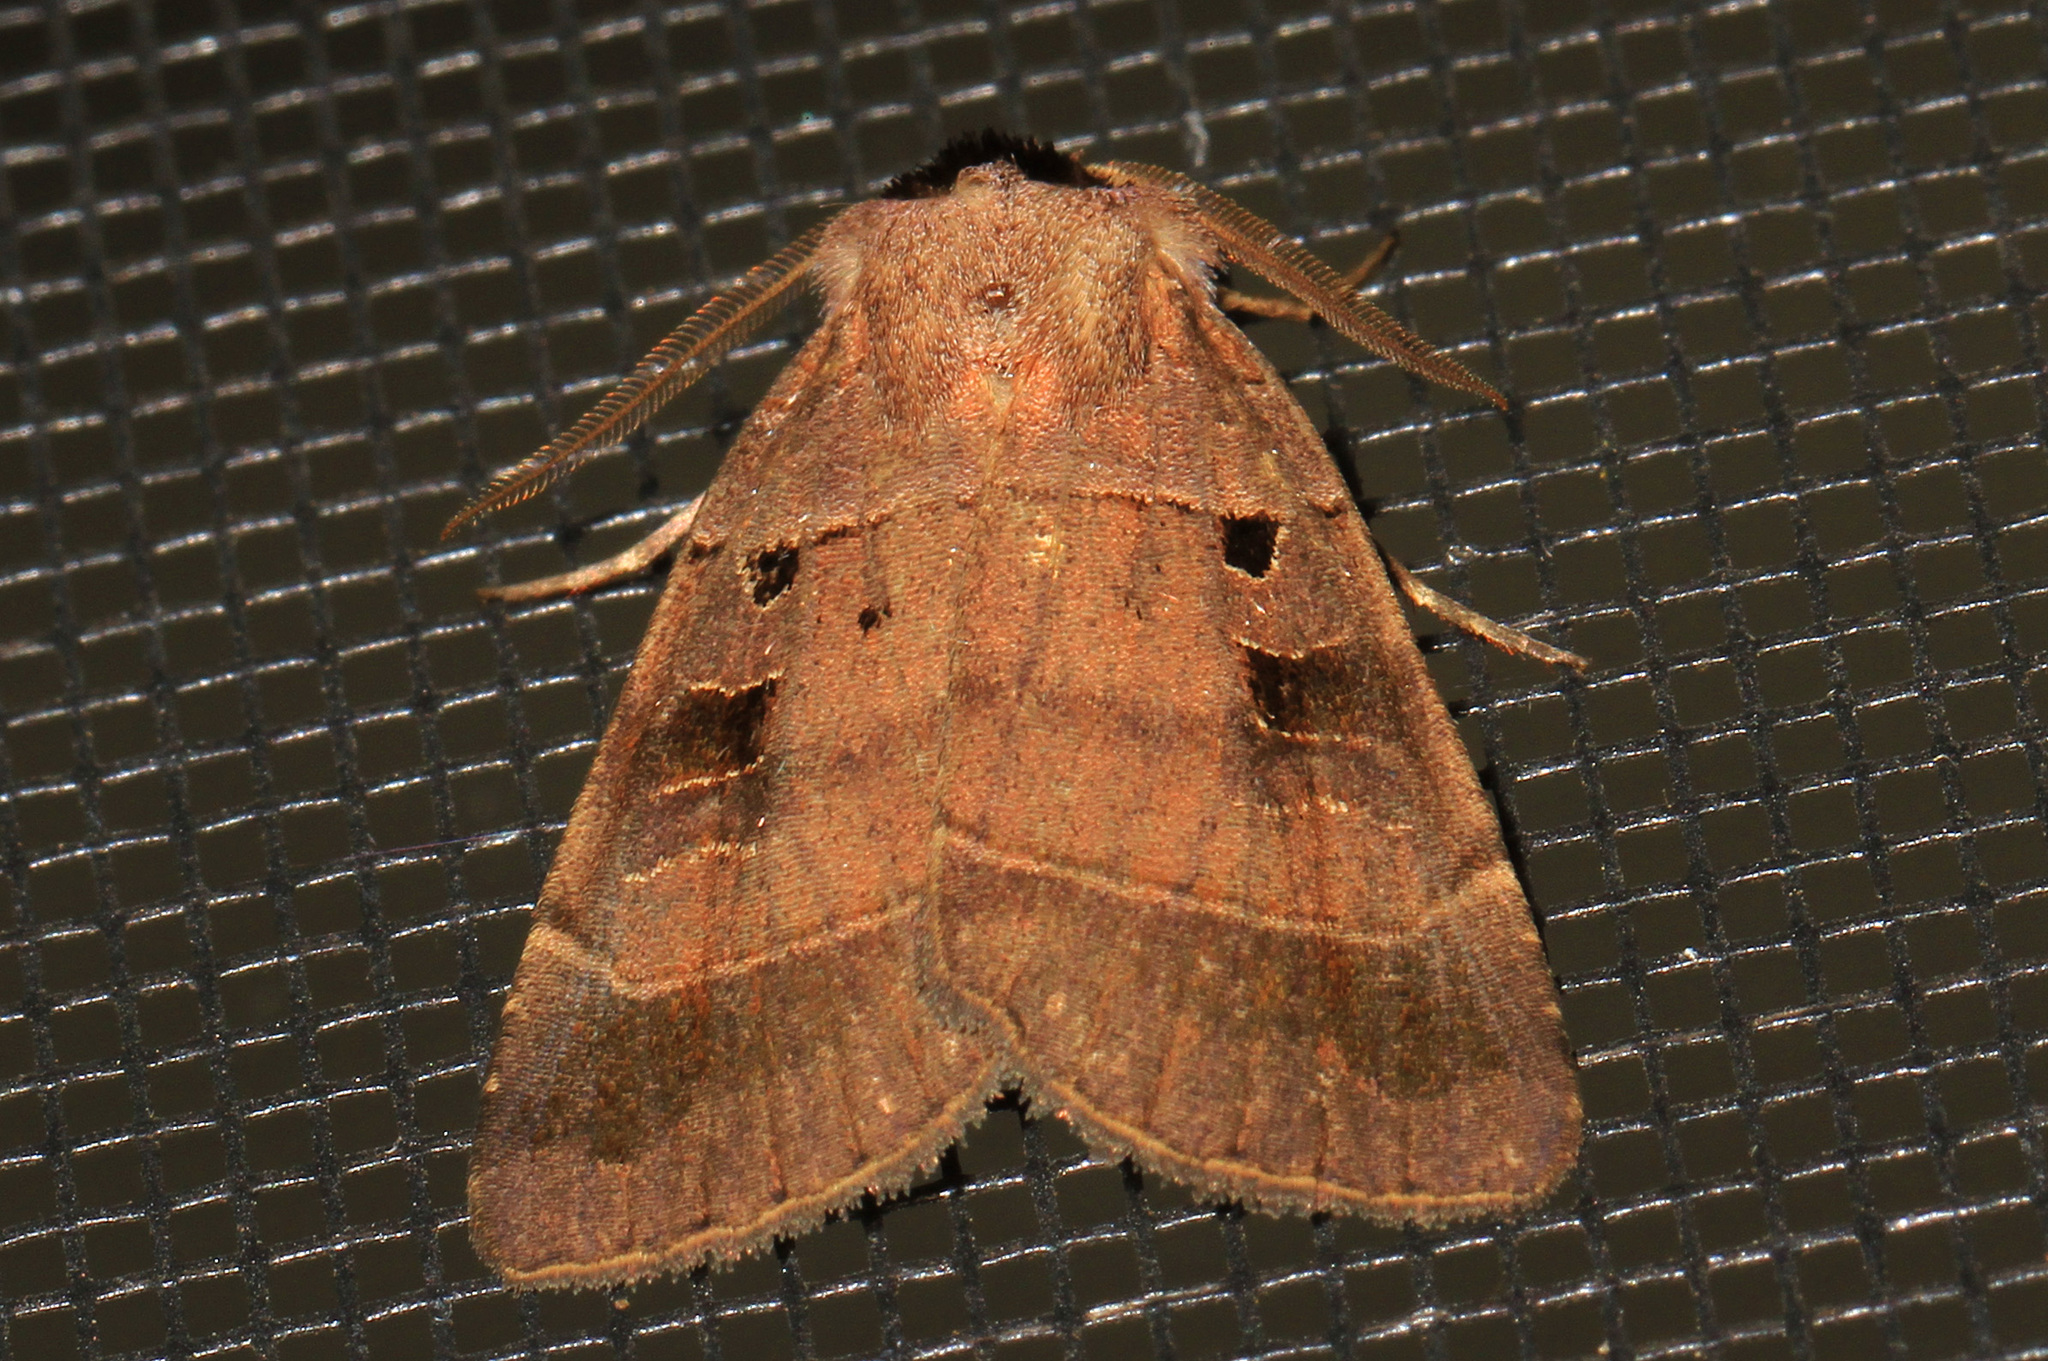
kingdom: Animalia
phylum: Arthropoda
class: Insecta
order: Lepidoptera
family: Noctuidae
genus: Agnorisma
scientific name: Agnorisma badinodis
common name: Pale-banded dart
